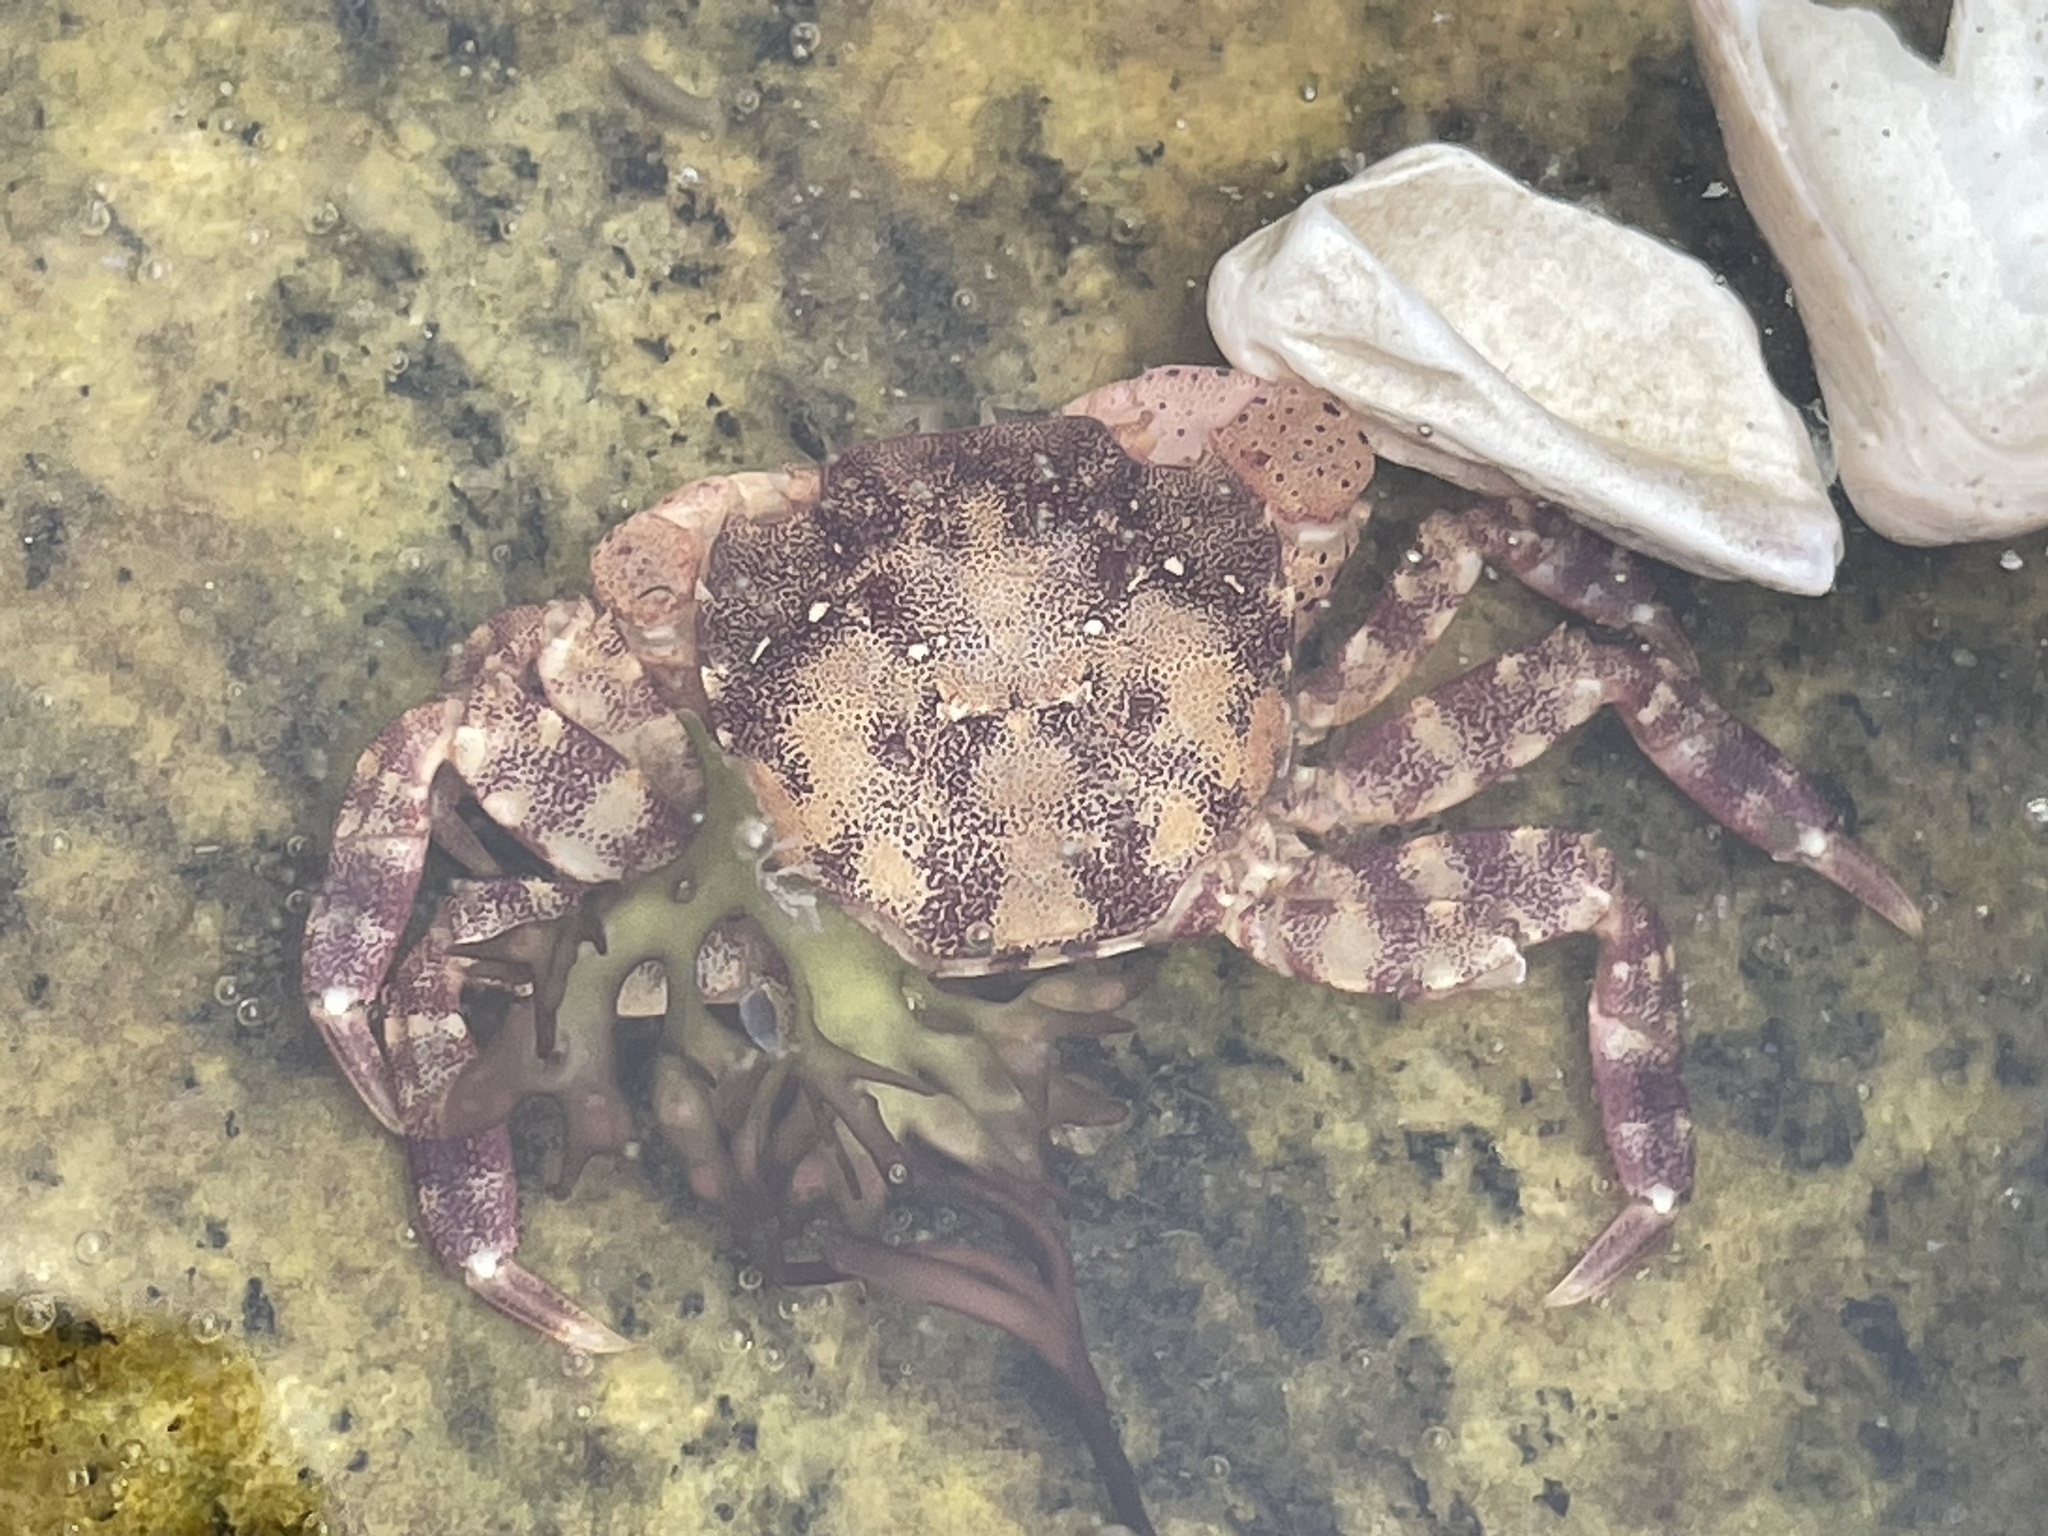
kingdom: Animalia
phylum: Arthropoda
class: Malacostraca
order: Decapoda
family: Varunidae
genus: Hemigrapsus
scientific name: Hemigrapsus sanguineus
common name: Asian shore crab
